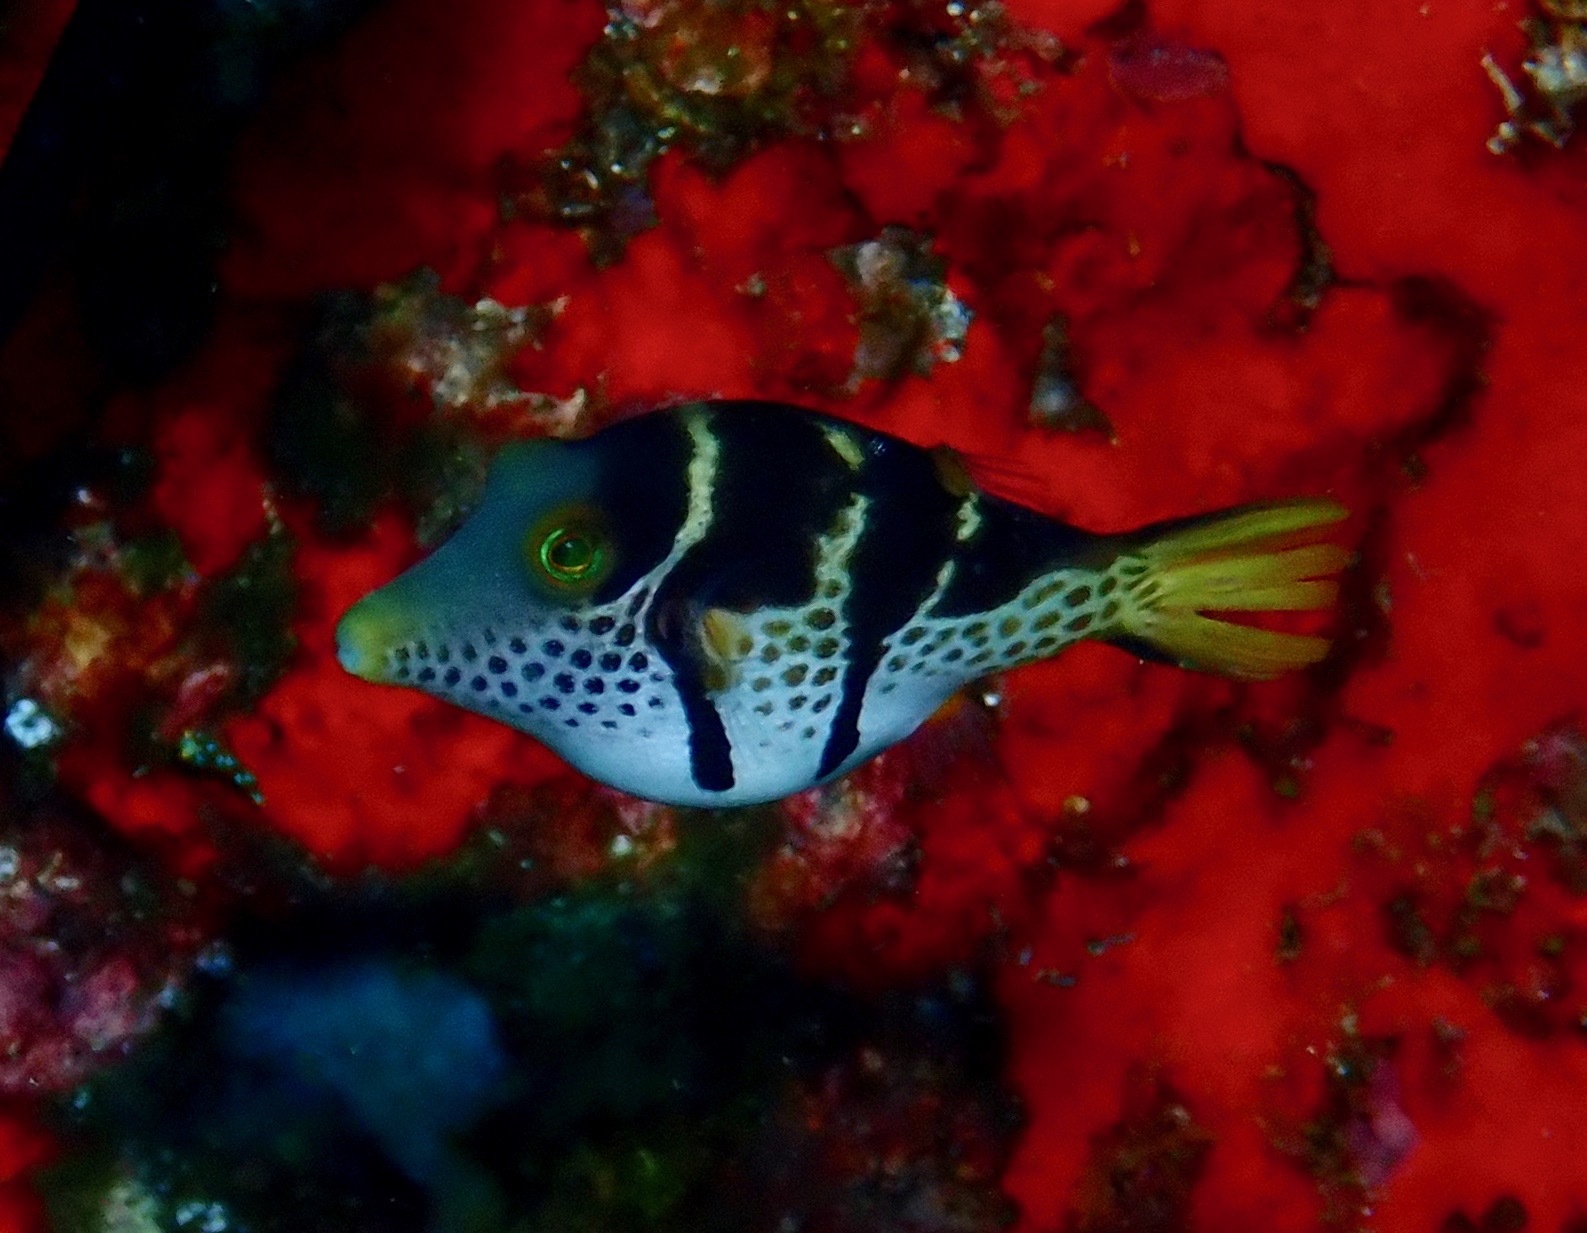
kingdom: Animalia
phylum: Chordata
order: Tetraodontiformes
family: Tetraodontidae
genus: Canthigaster
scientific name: Canthigaster valentini
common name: Banded toby
